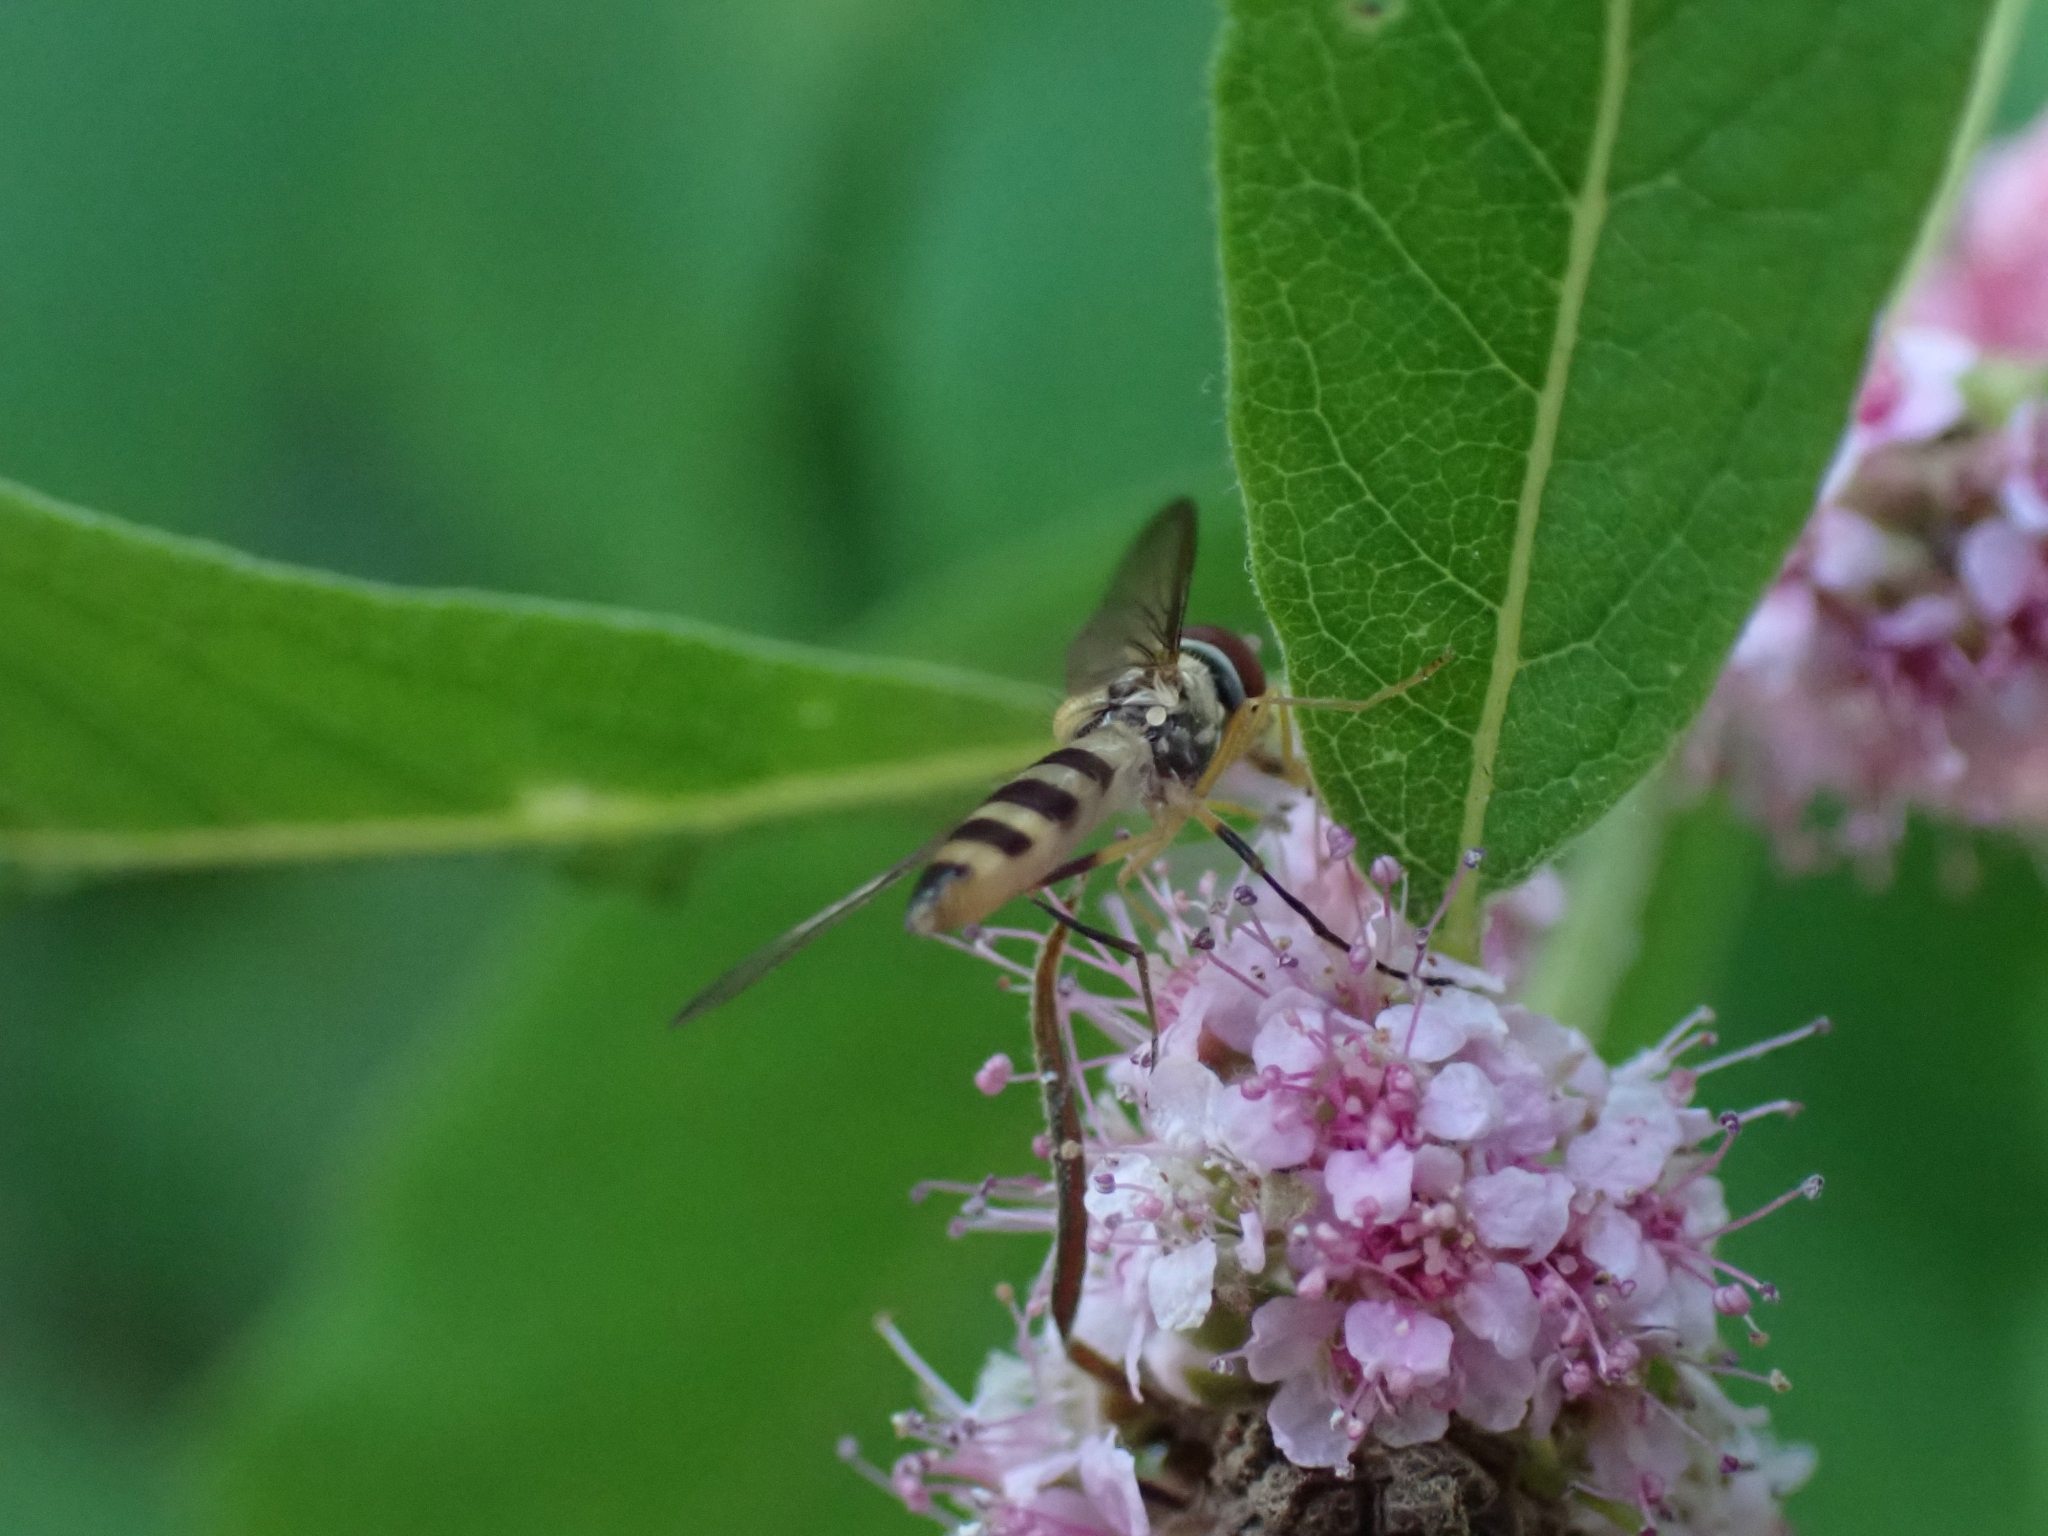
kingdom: Animalia
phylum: Arthropoda
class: Insecta
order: Diptera
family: Syrphidae
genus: Meliscaeva
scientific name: Meliscaeva cinctella
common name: American thintail fly
